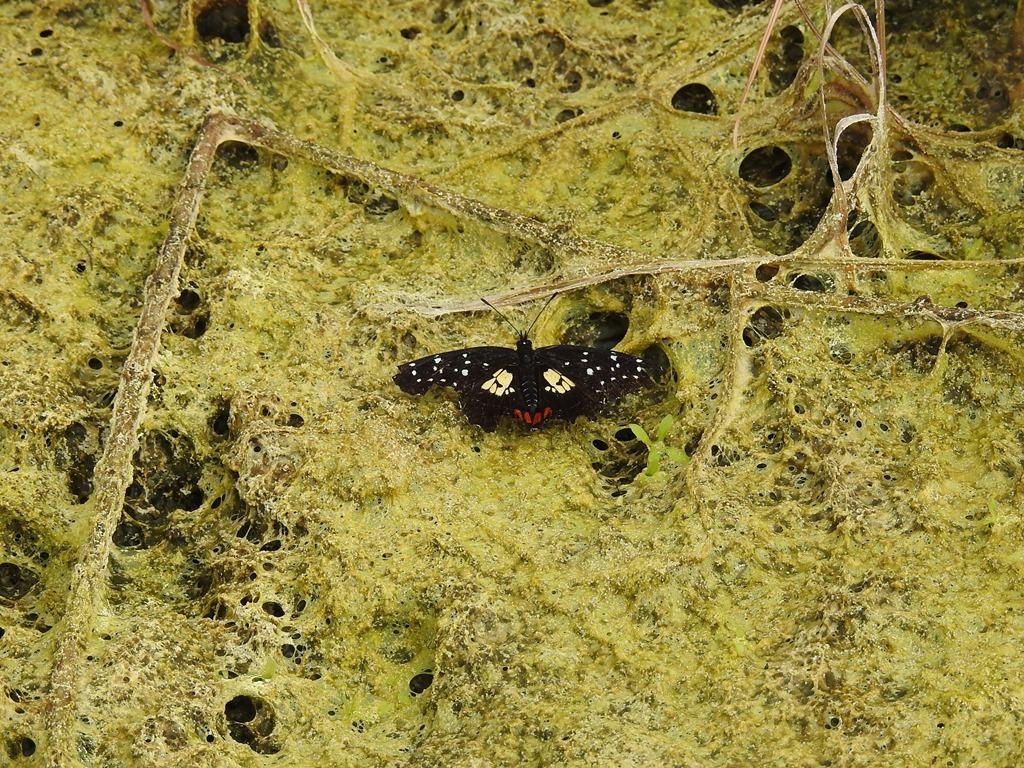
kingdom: Animalia
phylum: Arthropoda
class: Insecta
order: Lepidoptera
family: Nymphalidae
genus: Chlosyne
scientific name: Chlosyne erodyle
